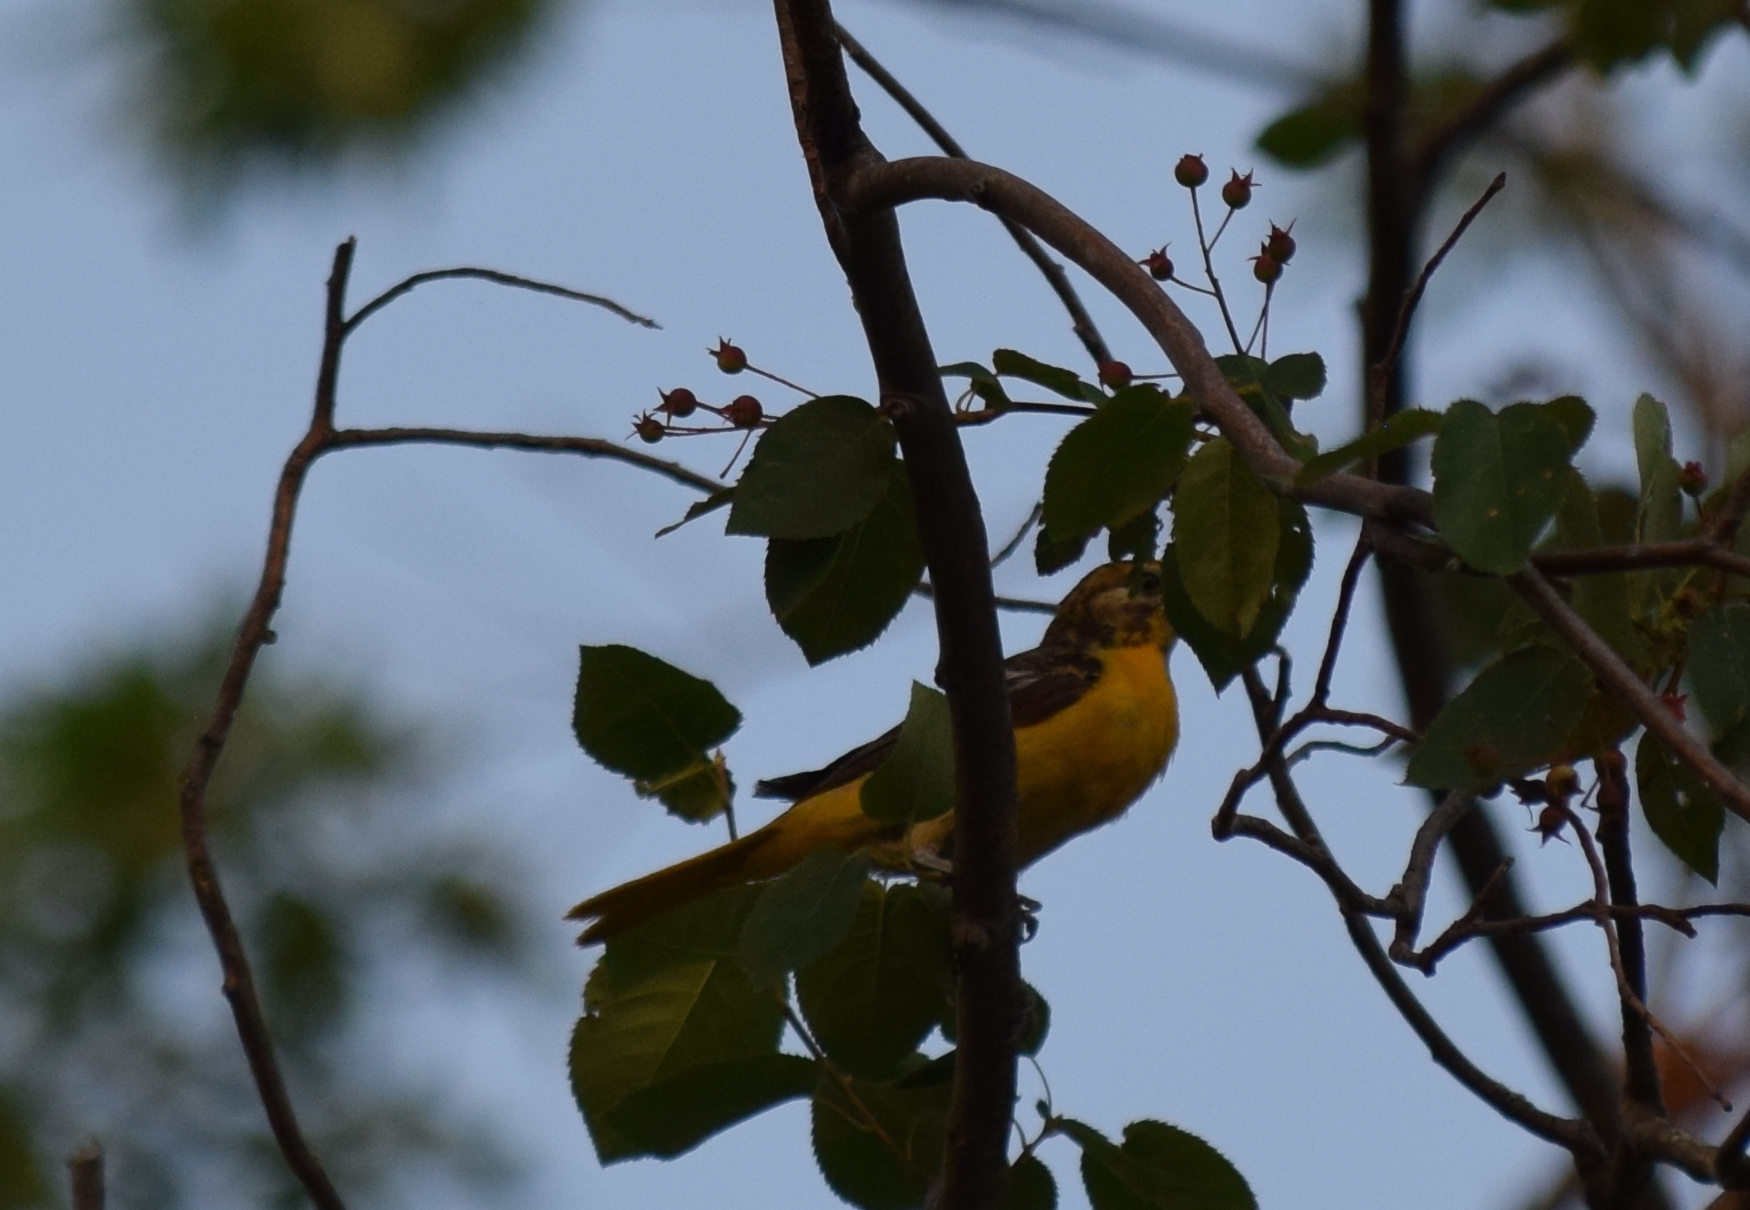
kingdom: Animalia
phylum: Chordata
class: Aves
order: Passeriformes
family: Icteridae
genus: Icterus
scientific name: Icterus galbula
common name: Baltimore oriole
